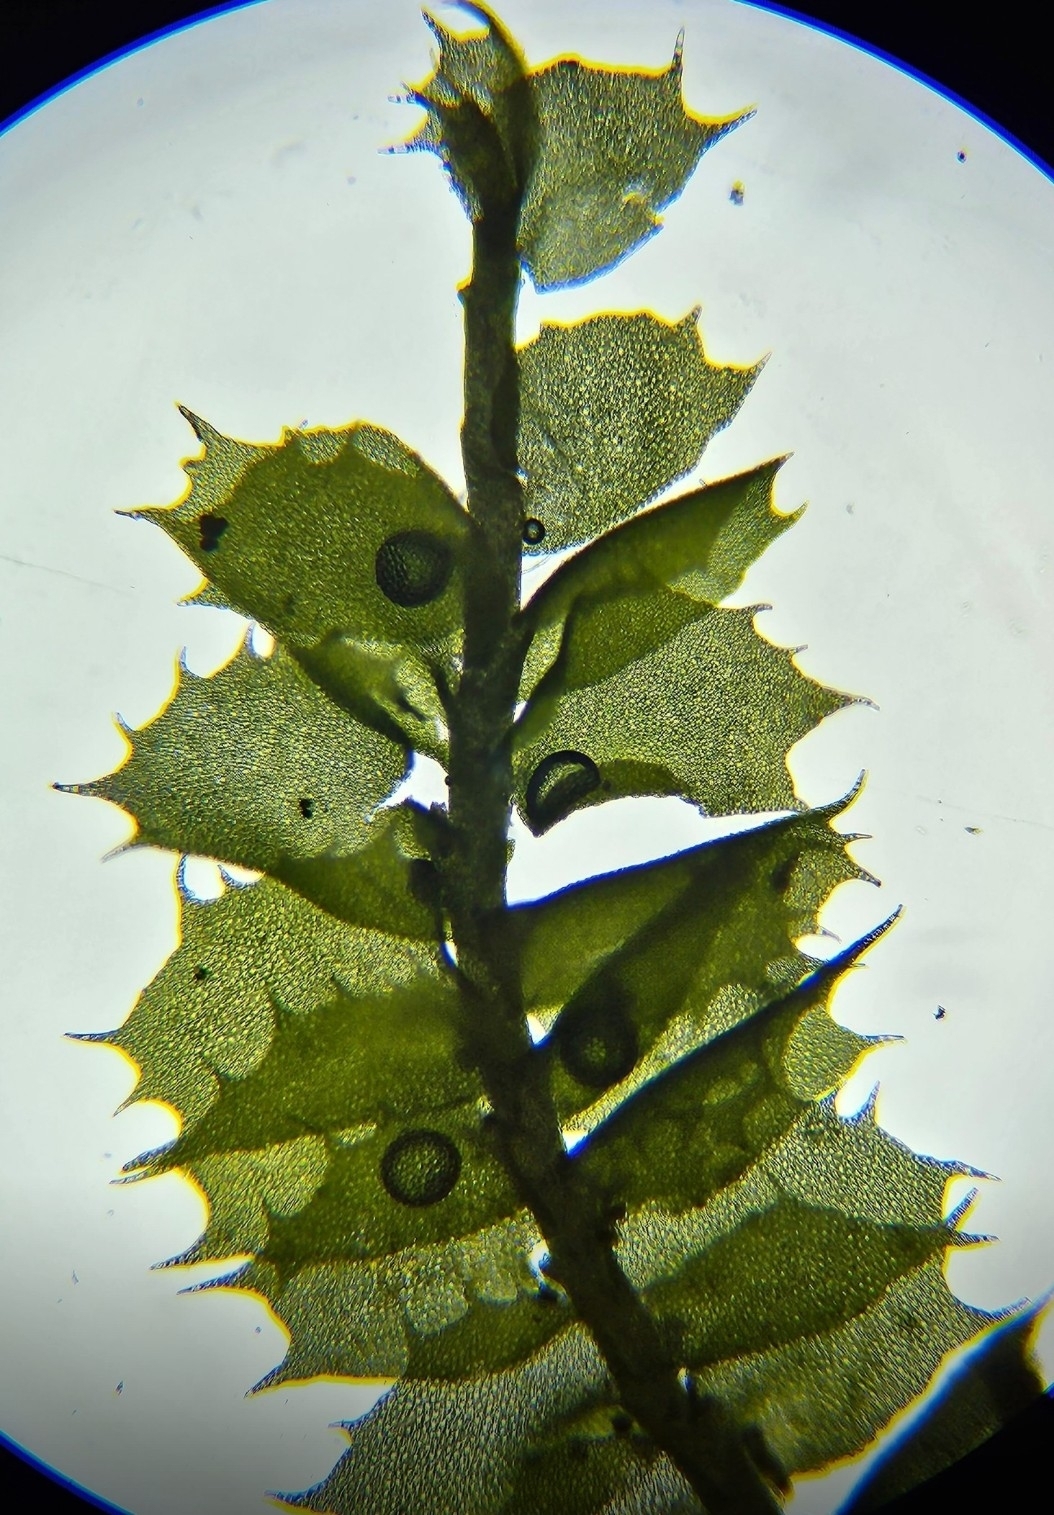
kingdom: Plantae
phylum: Marchantiophyta
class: Jungermanniopsida
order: Jungermanniales
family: Plagiochilaceae
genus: Plagiochila
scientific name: Plagiochila punctata
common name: Spotty featherwort
